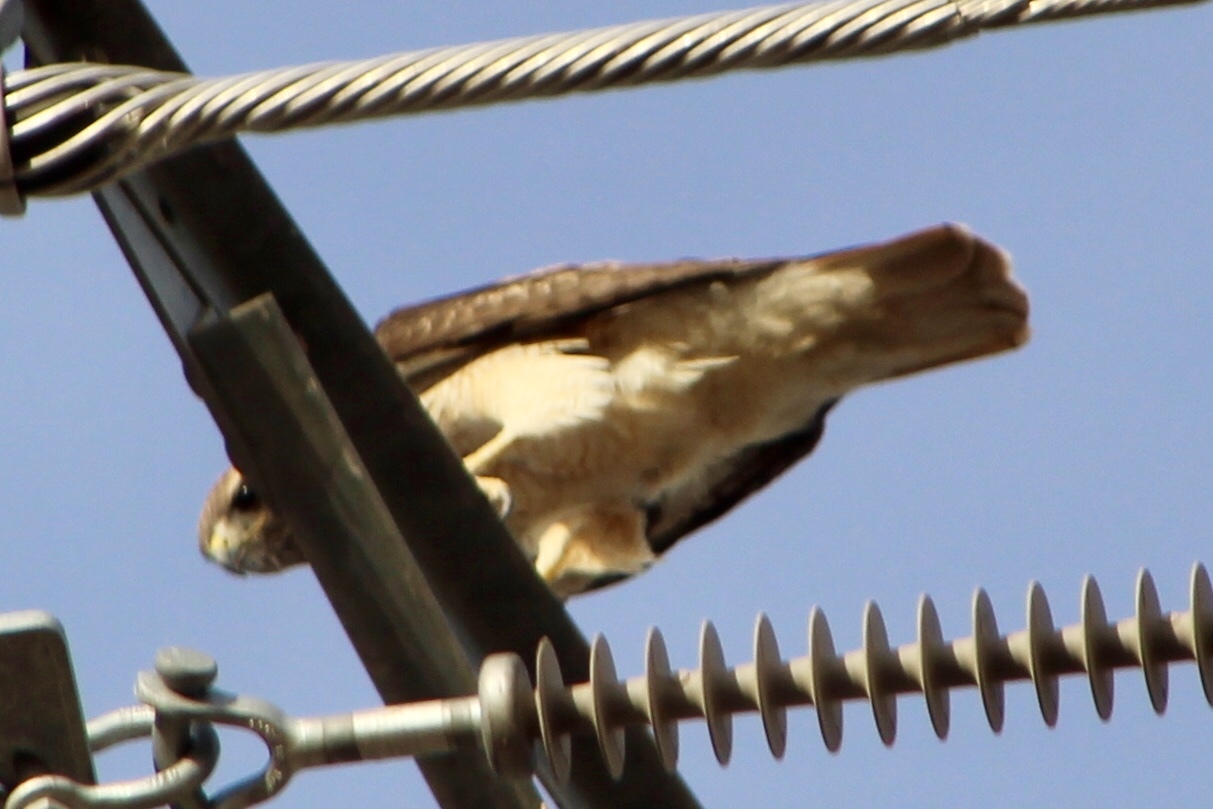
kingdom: Animalia
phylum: Chordata
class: Aves
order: Accipitriformes
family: Accipitridae
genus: Buteo
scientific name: Buteo jamaicensis
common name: Red-tailed hawk
